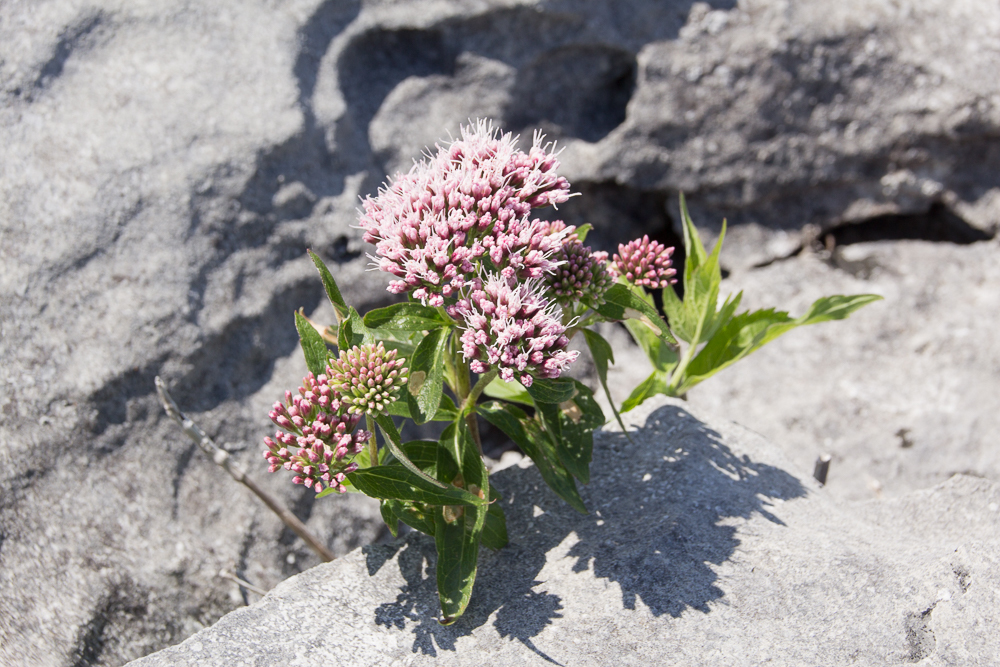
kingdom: Plantae
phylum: Tracheophyta
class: Magnoliopsida
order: Asterales
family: Asteraceae
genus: Eupatorium
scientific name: Eupatorium cannabinum
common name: Hemp-agrimony
